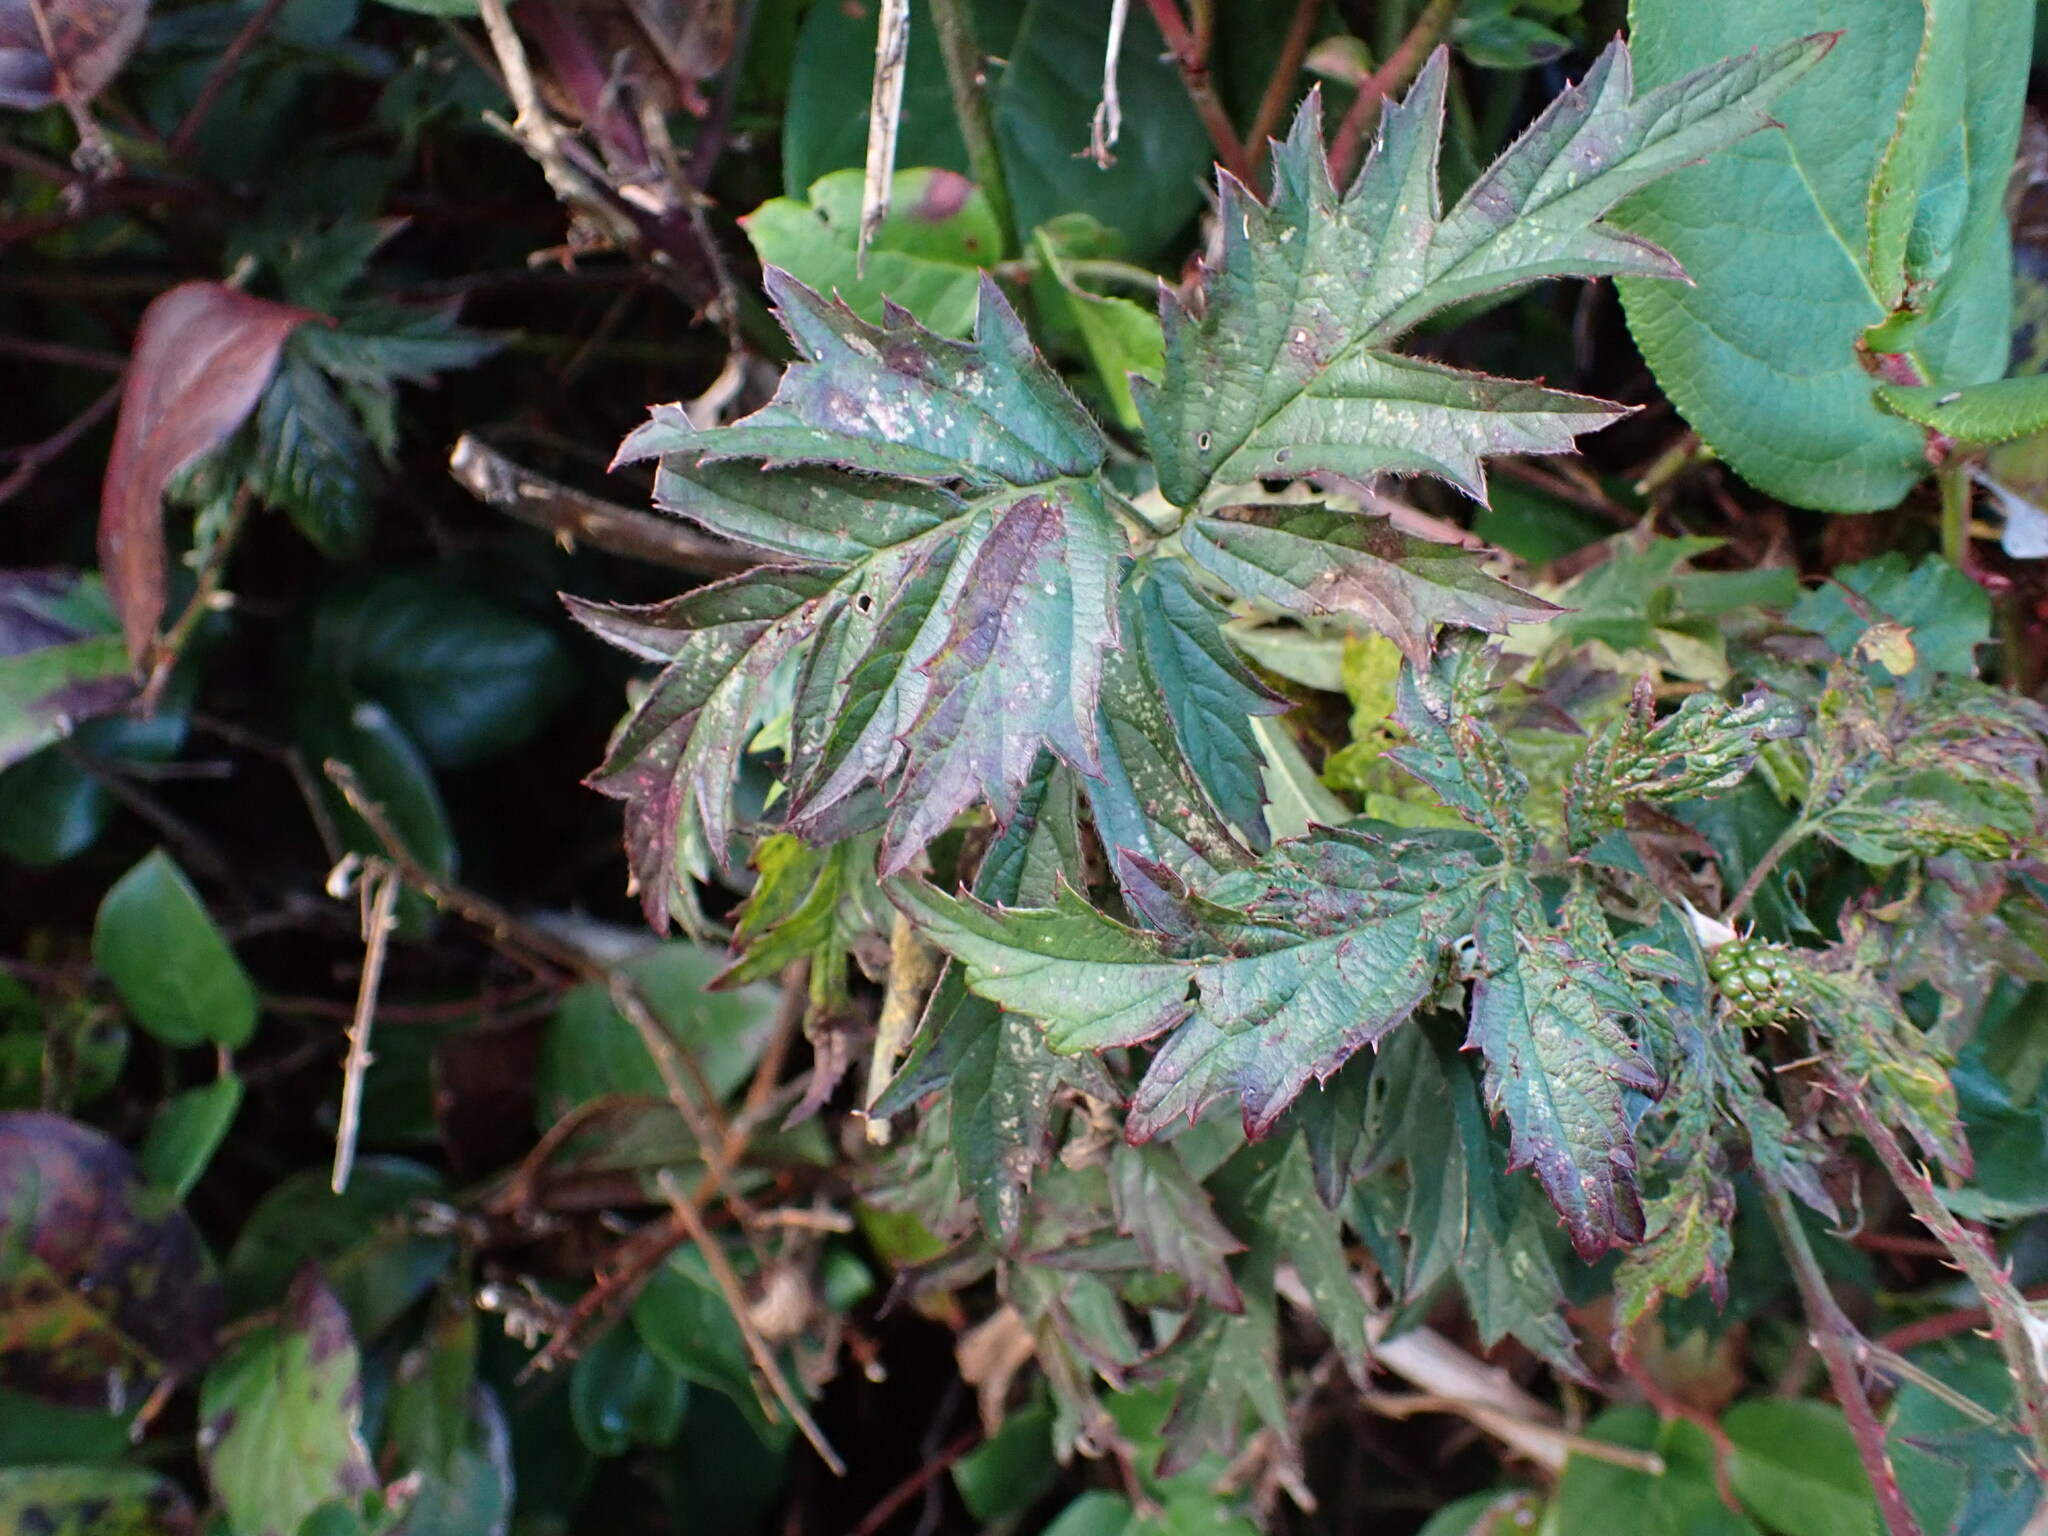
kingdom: Plantae
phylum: Tracheophyta
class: Magnoliopsida
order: Rosales
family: Rosaceae
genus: Rubus
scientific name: Rubus laciniatus
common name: Evergreen blackberry
